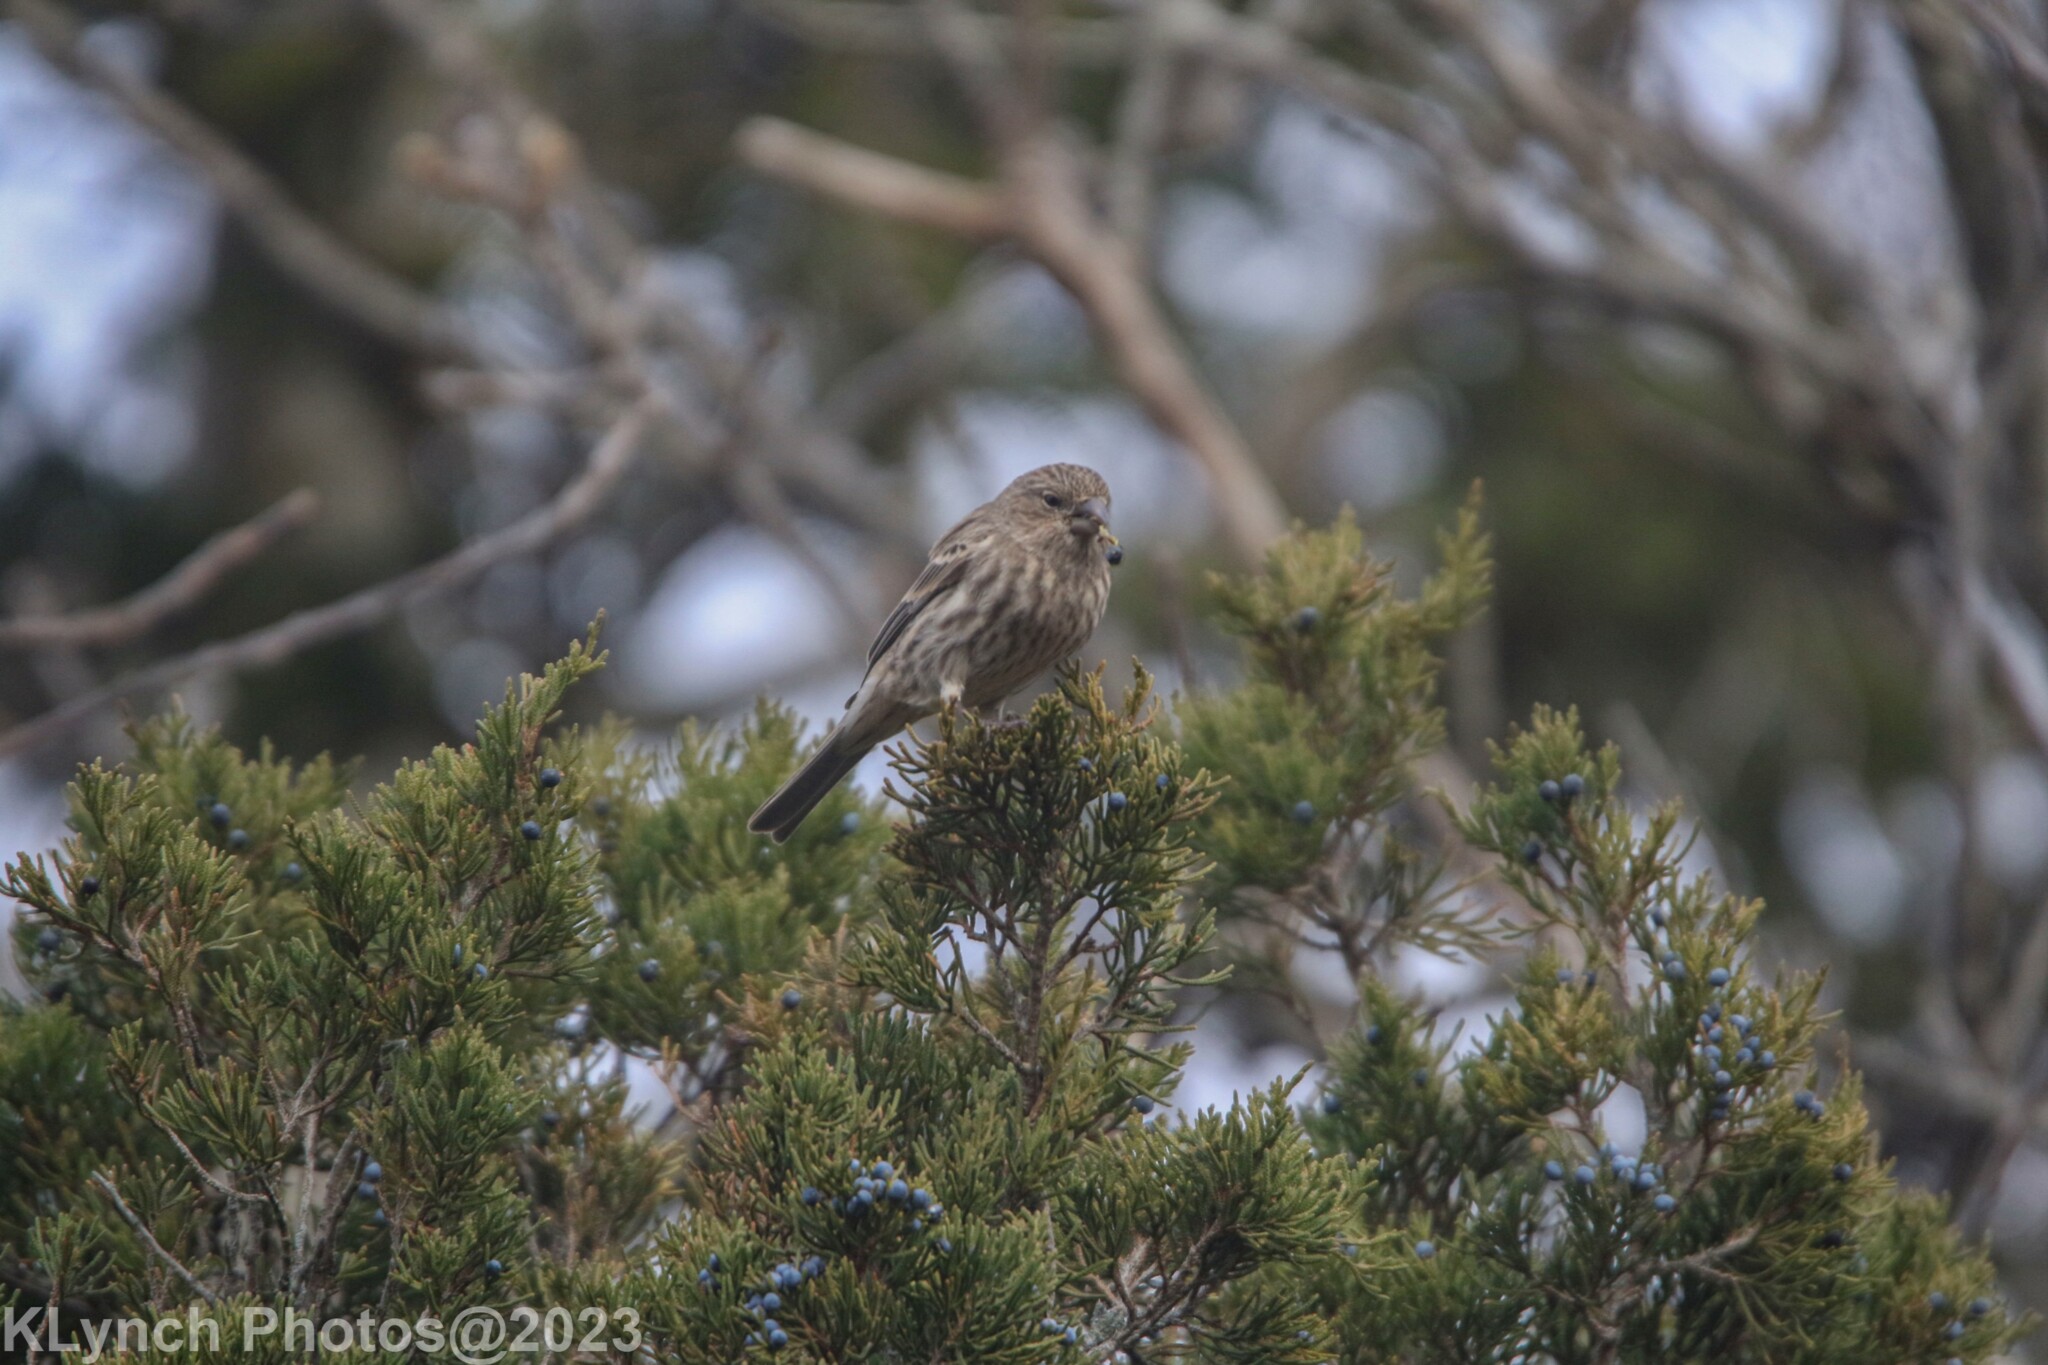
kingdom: Animalia
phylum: Chordata
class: Aves
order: Passeriformes
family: Fringillidae
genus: Haemorhous
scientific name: Haemorhous mexicanus
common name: House finch
